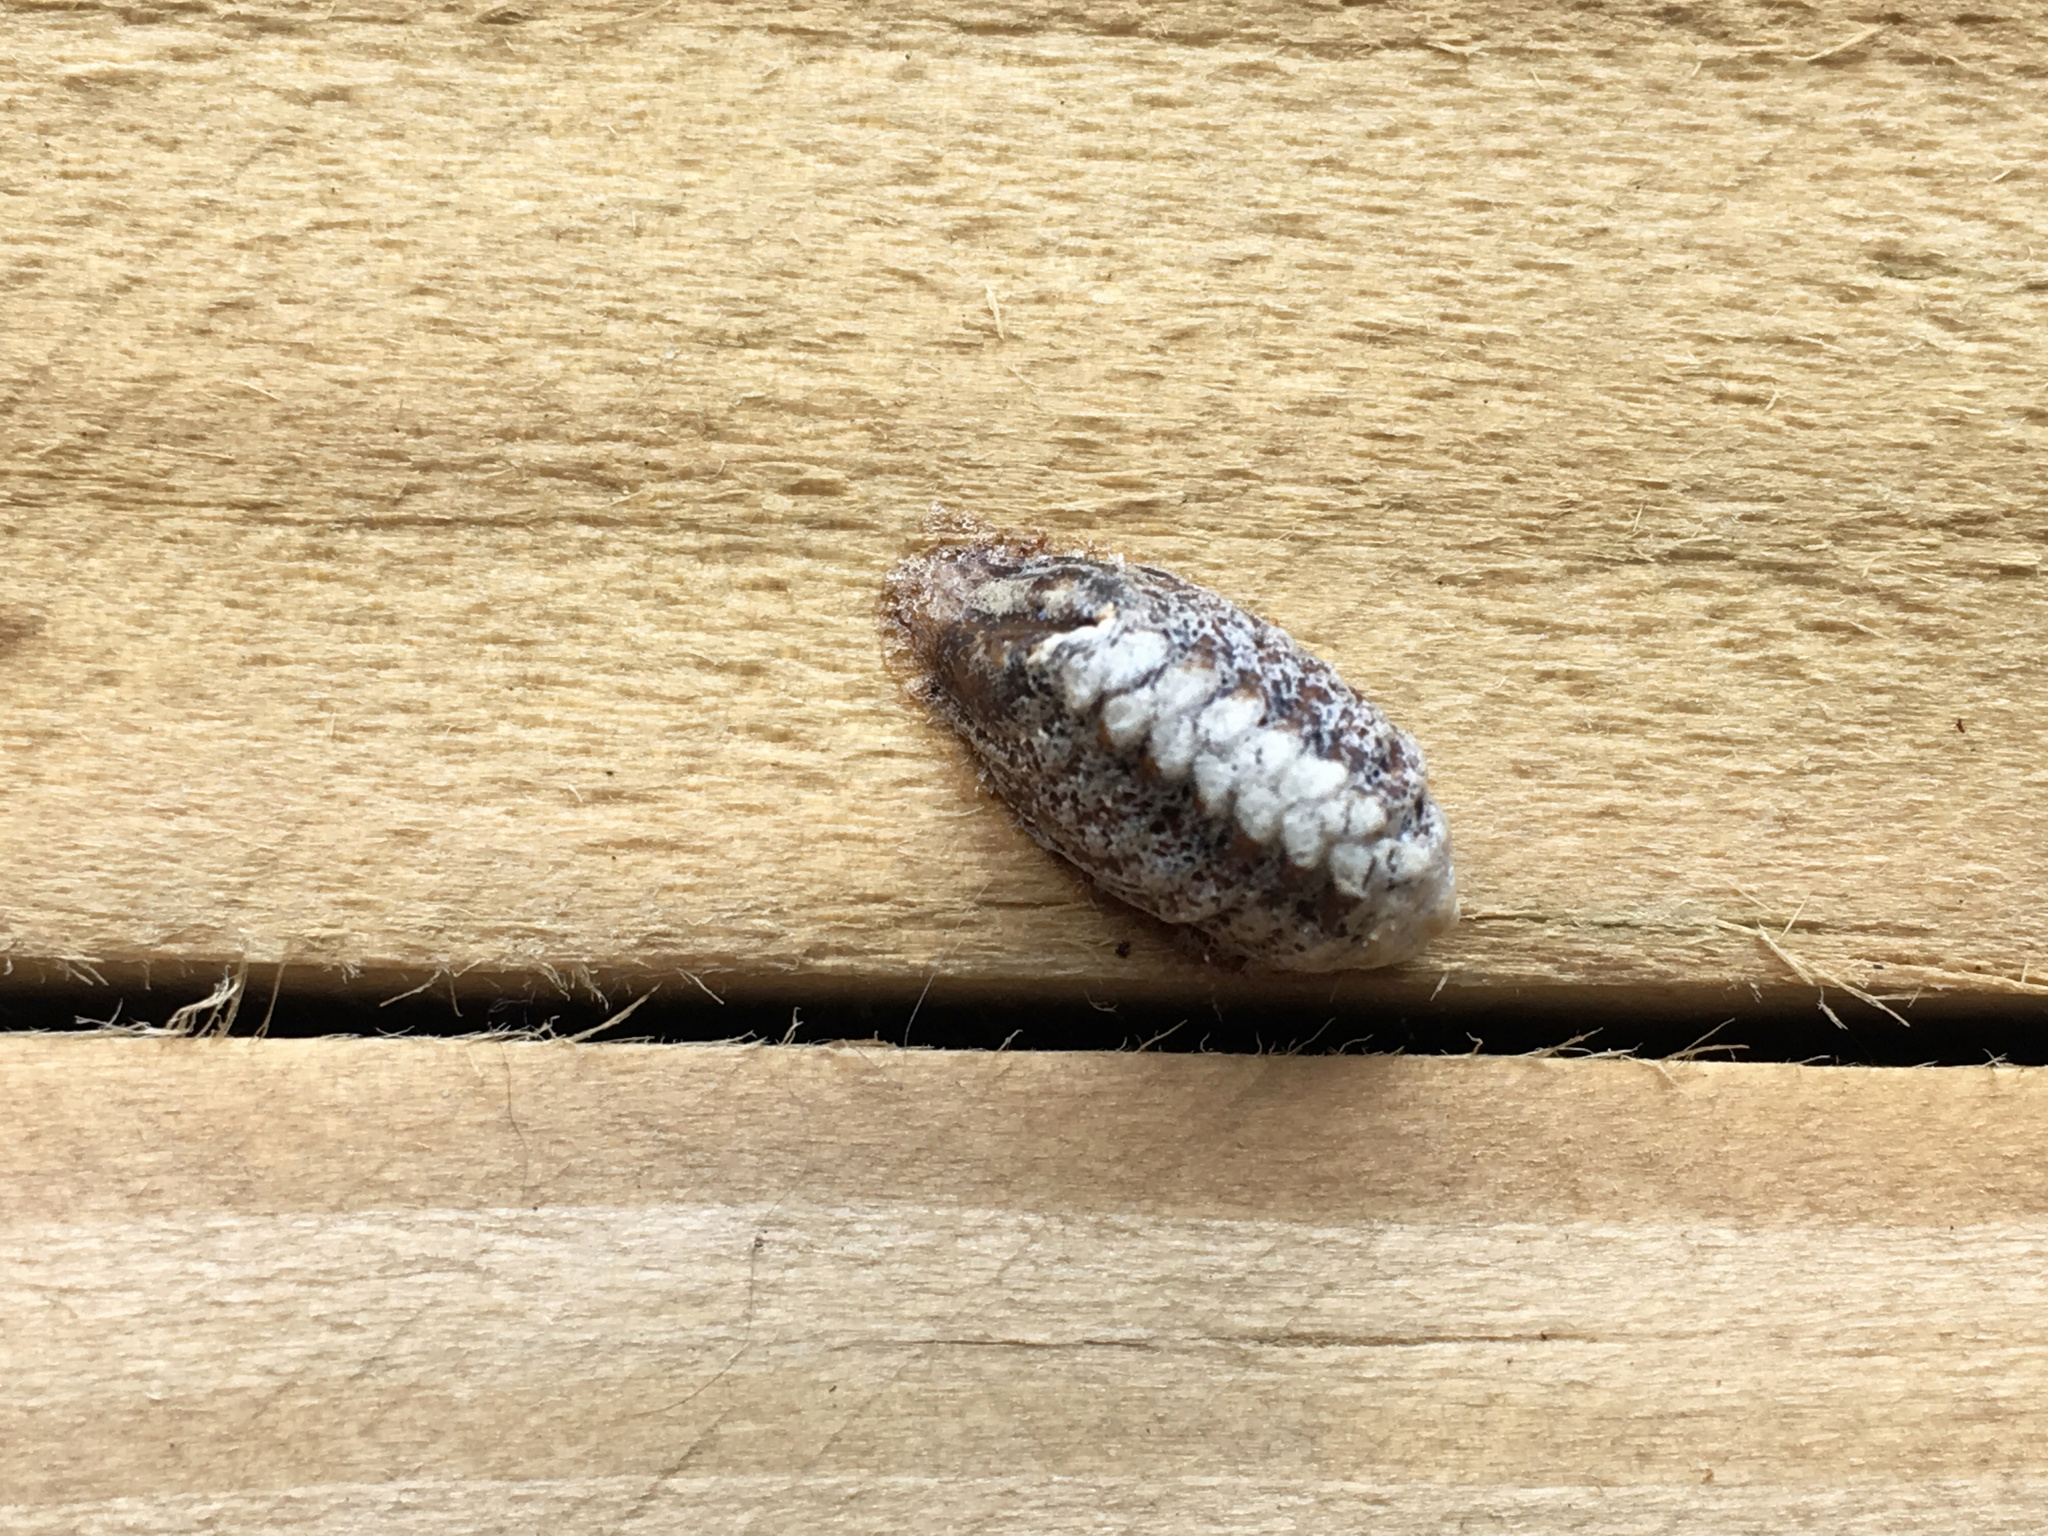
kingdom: Animalia
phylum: Arthropoda
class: Insecta
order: Mantodea
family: Mantidae
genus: Orthodera
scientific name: Orthodera novaezealandiae
